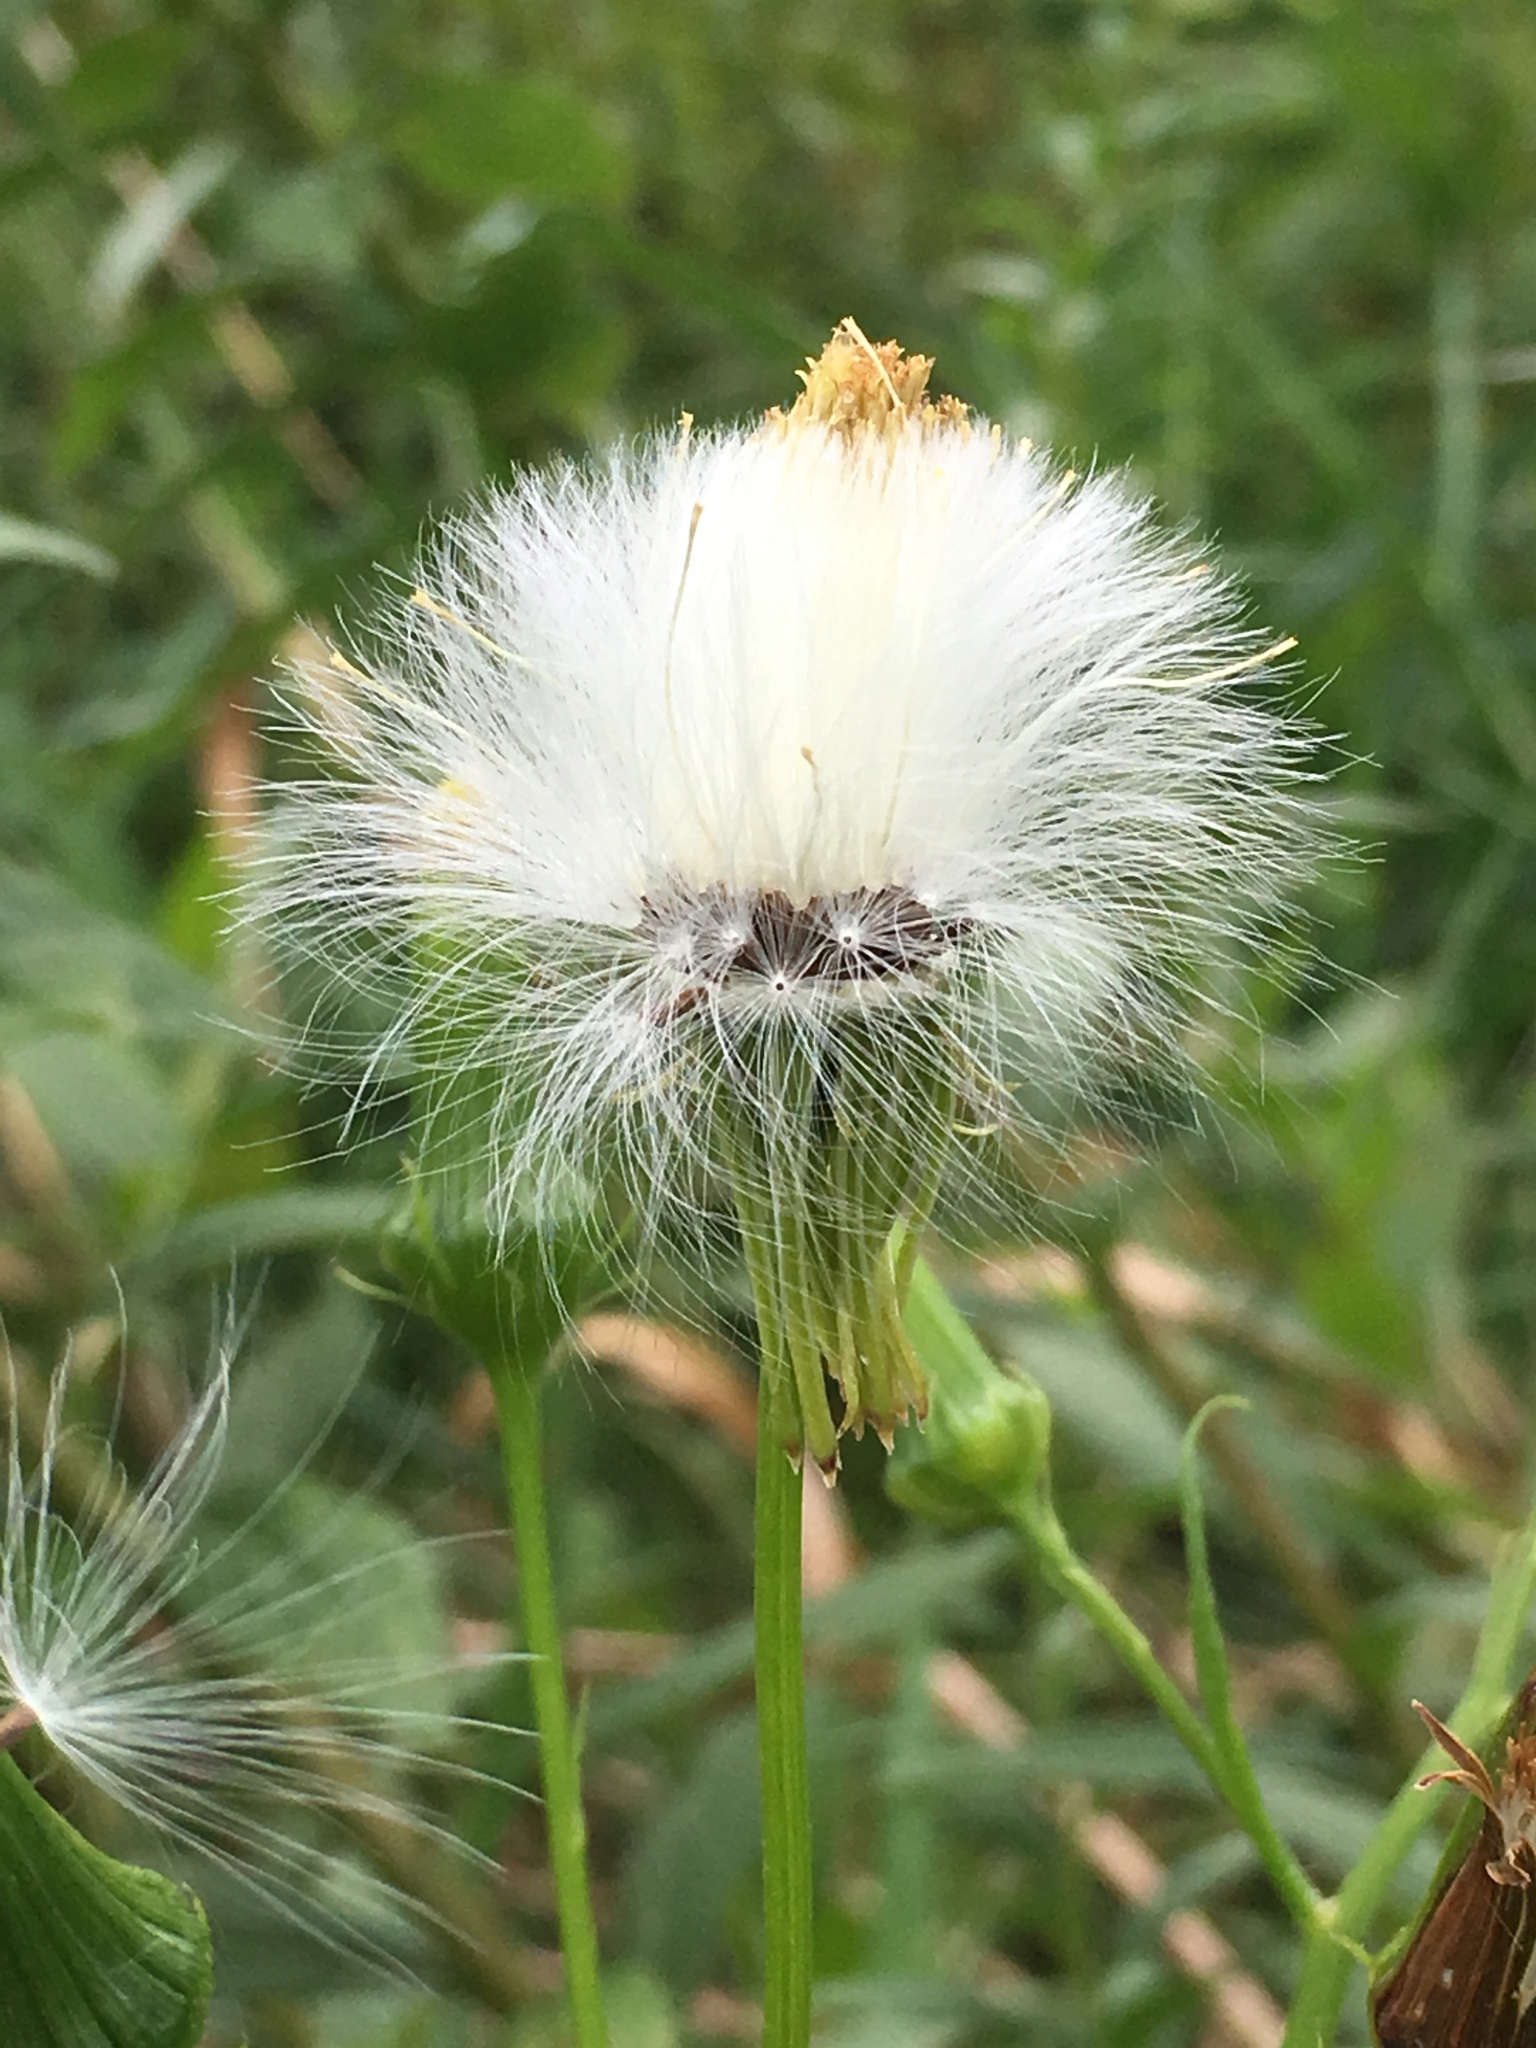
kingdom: Plantae
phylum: Tracheophyta
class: Magnoliopsida
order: Asterales
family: Asteraceae
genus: Erechtites
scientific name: Erechtites hieraciifolius
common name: American burnweed
